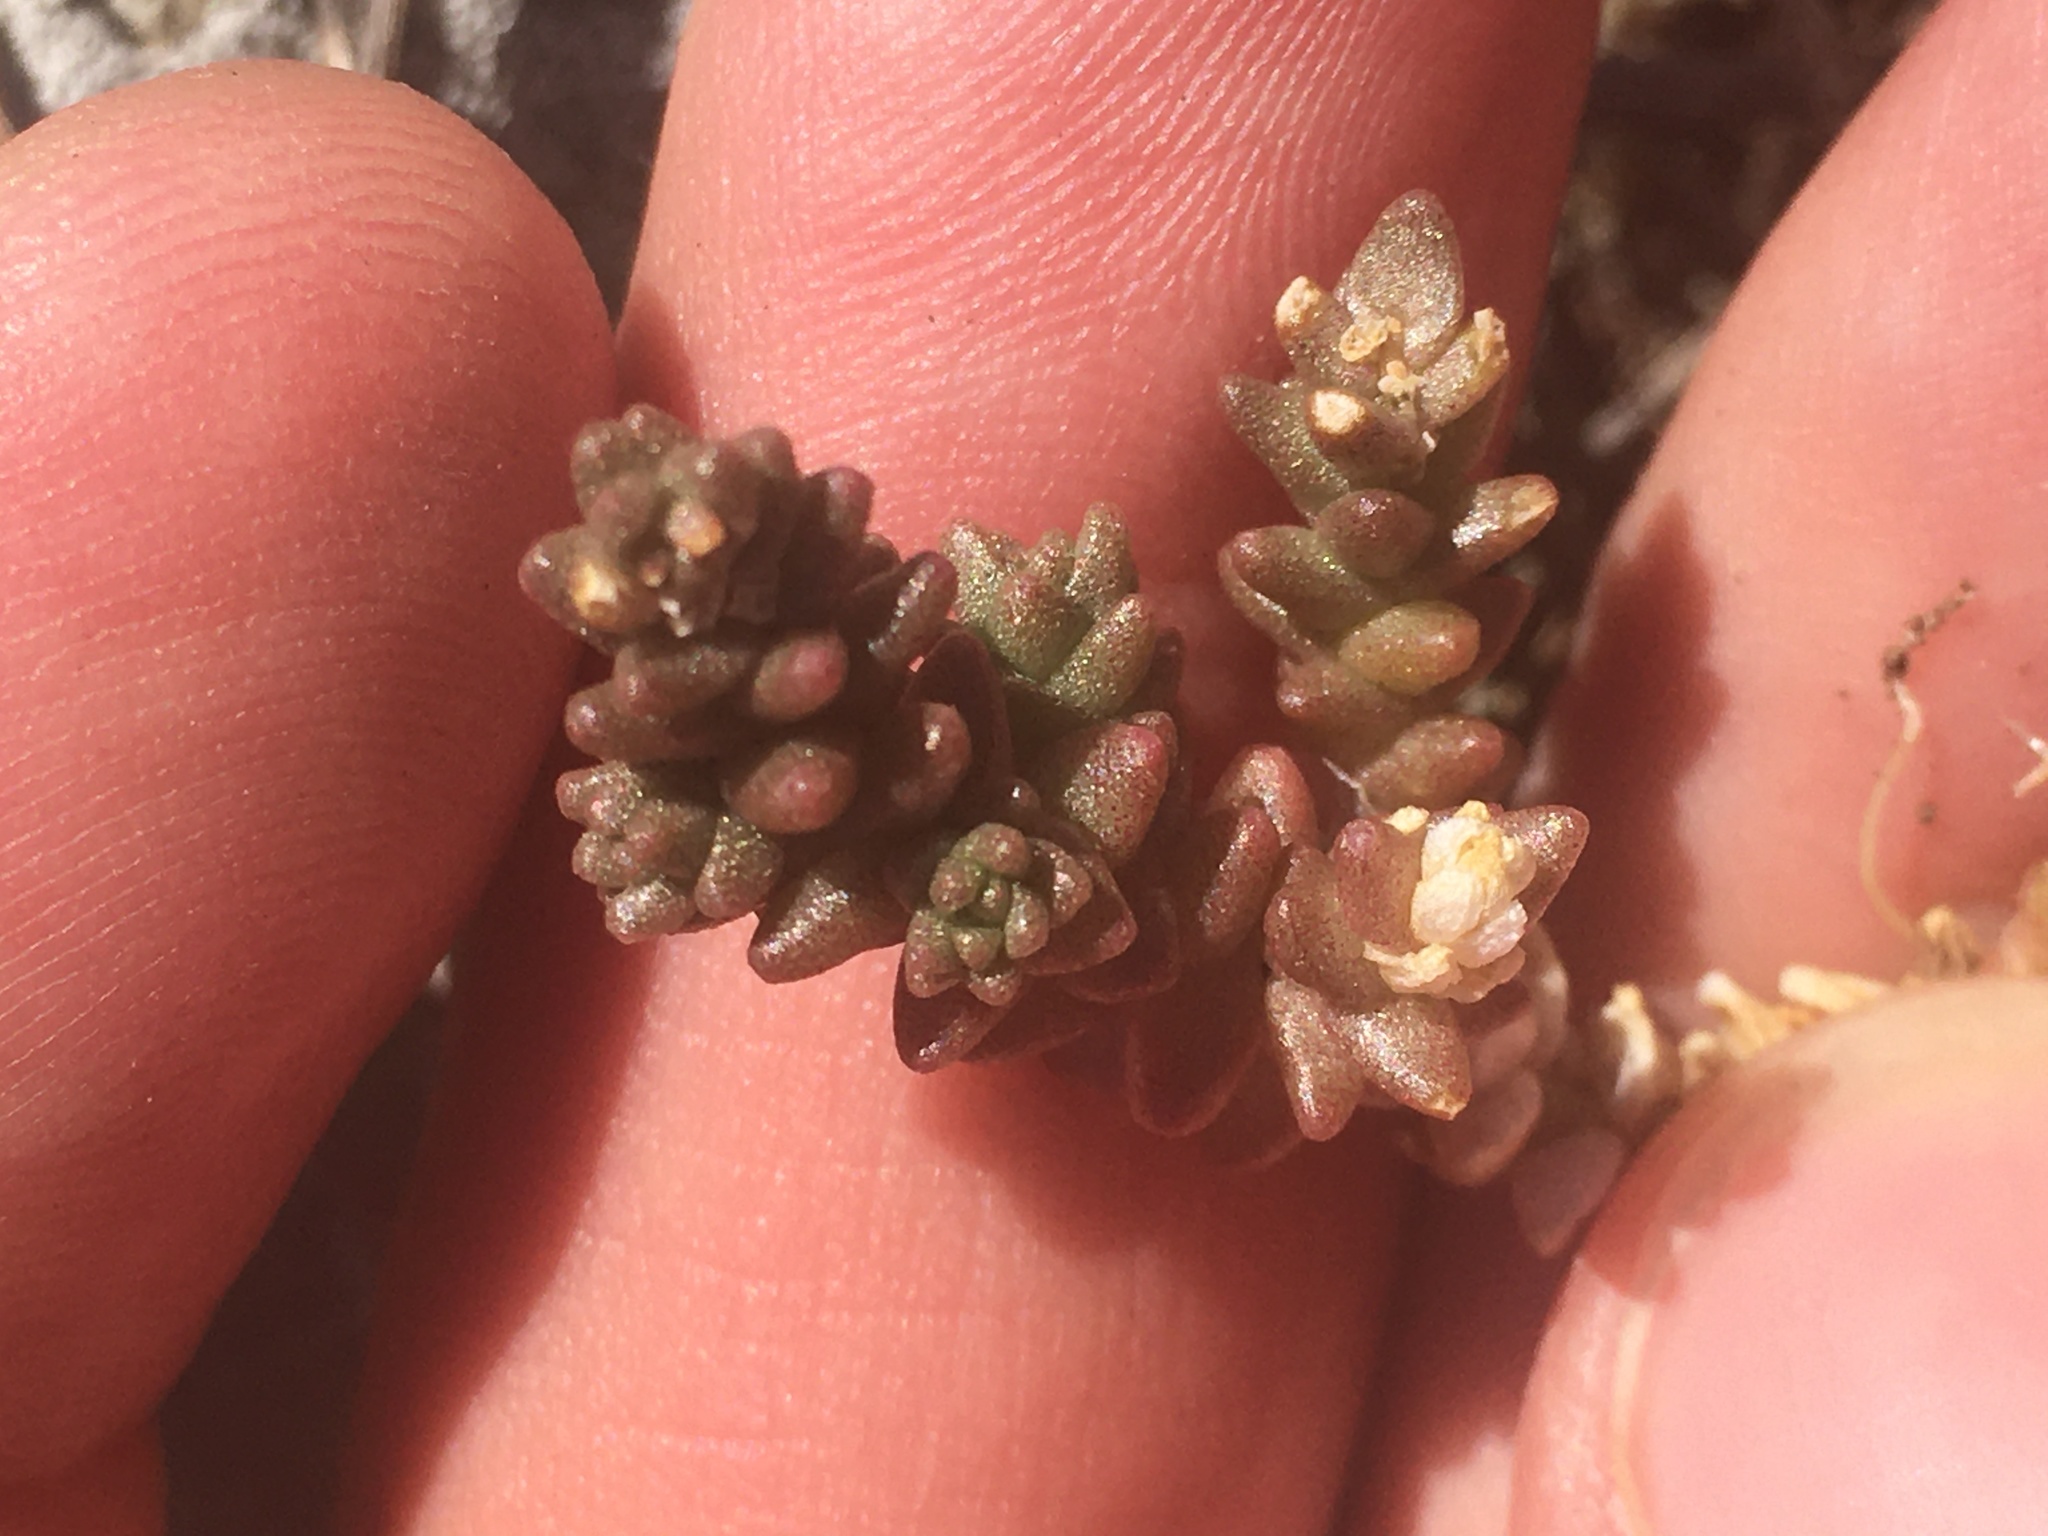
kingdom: Plantae
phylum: Tracheophyta
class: Magnoliopsida
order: Saxifragales
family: Crassulaceae
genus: Sedum
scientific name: Sedum acre
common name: Biting stonecrop
